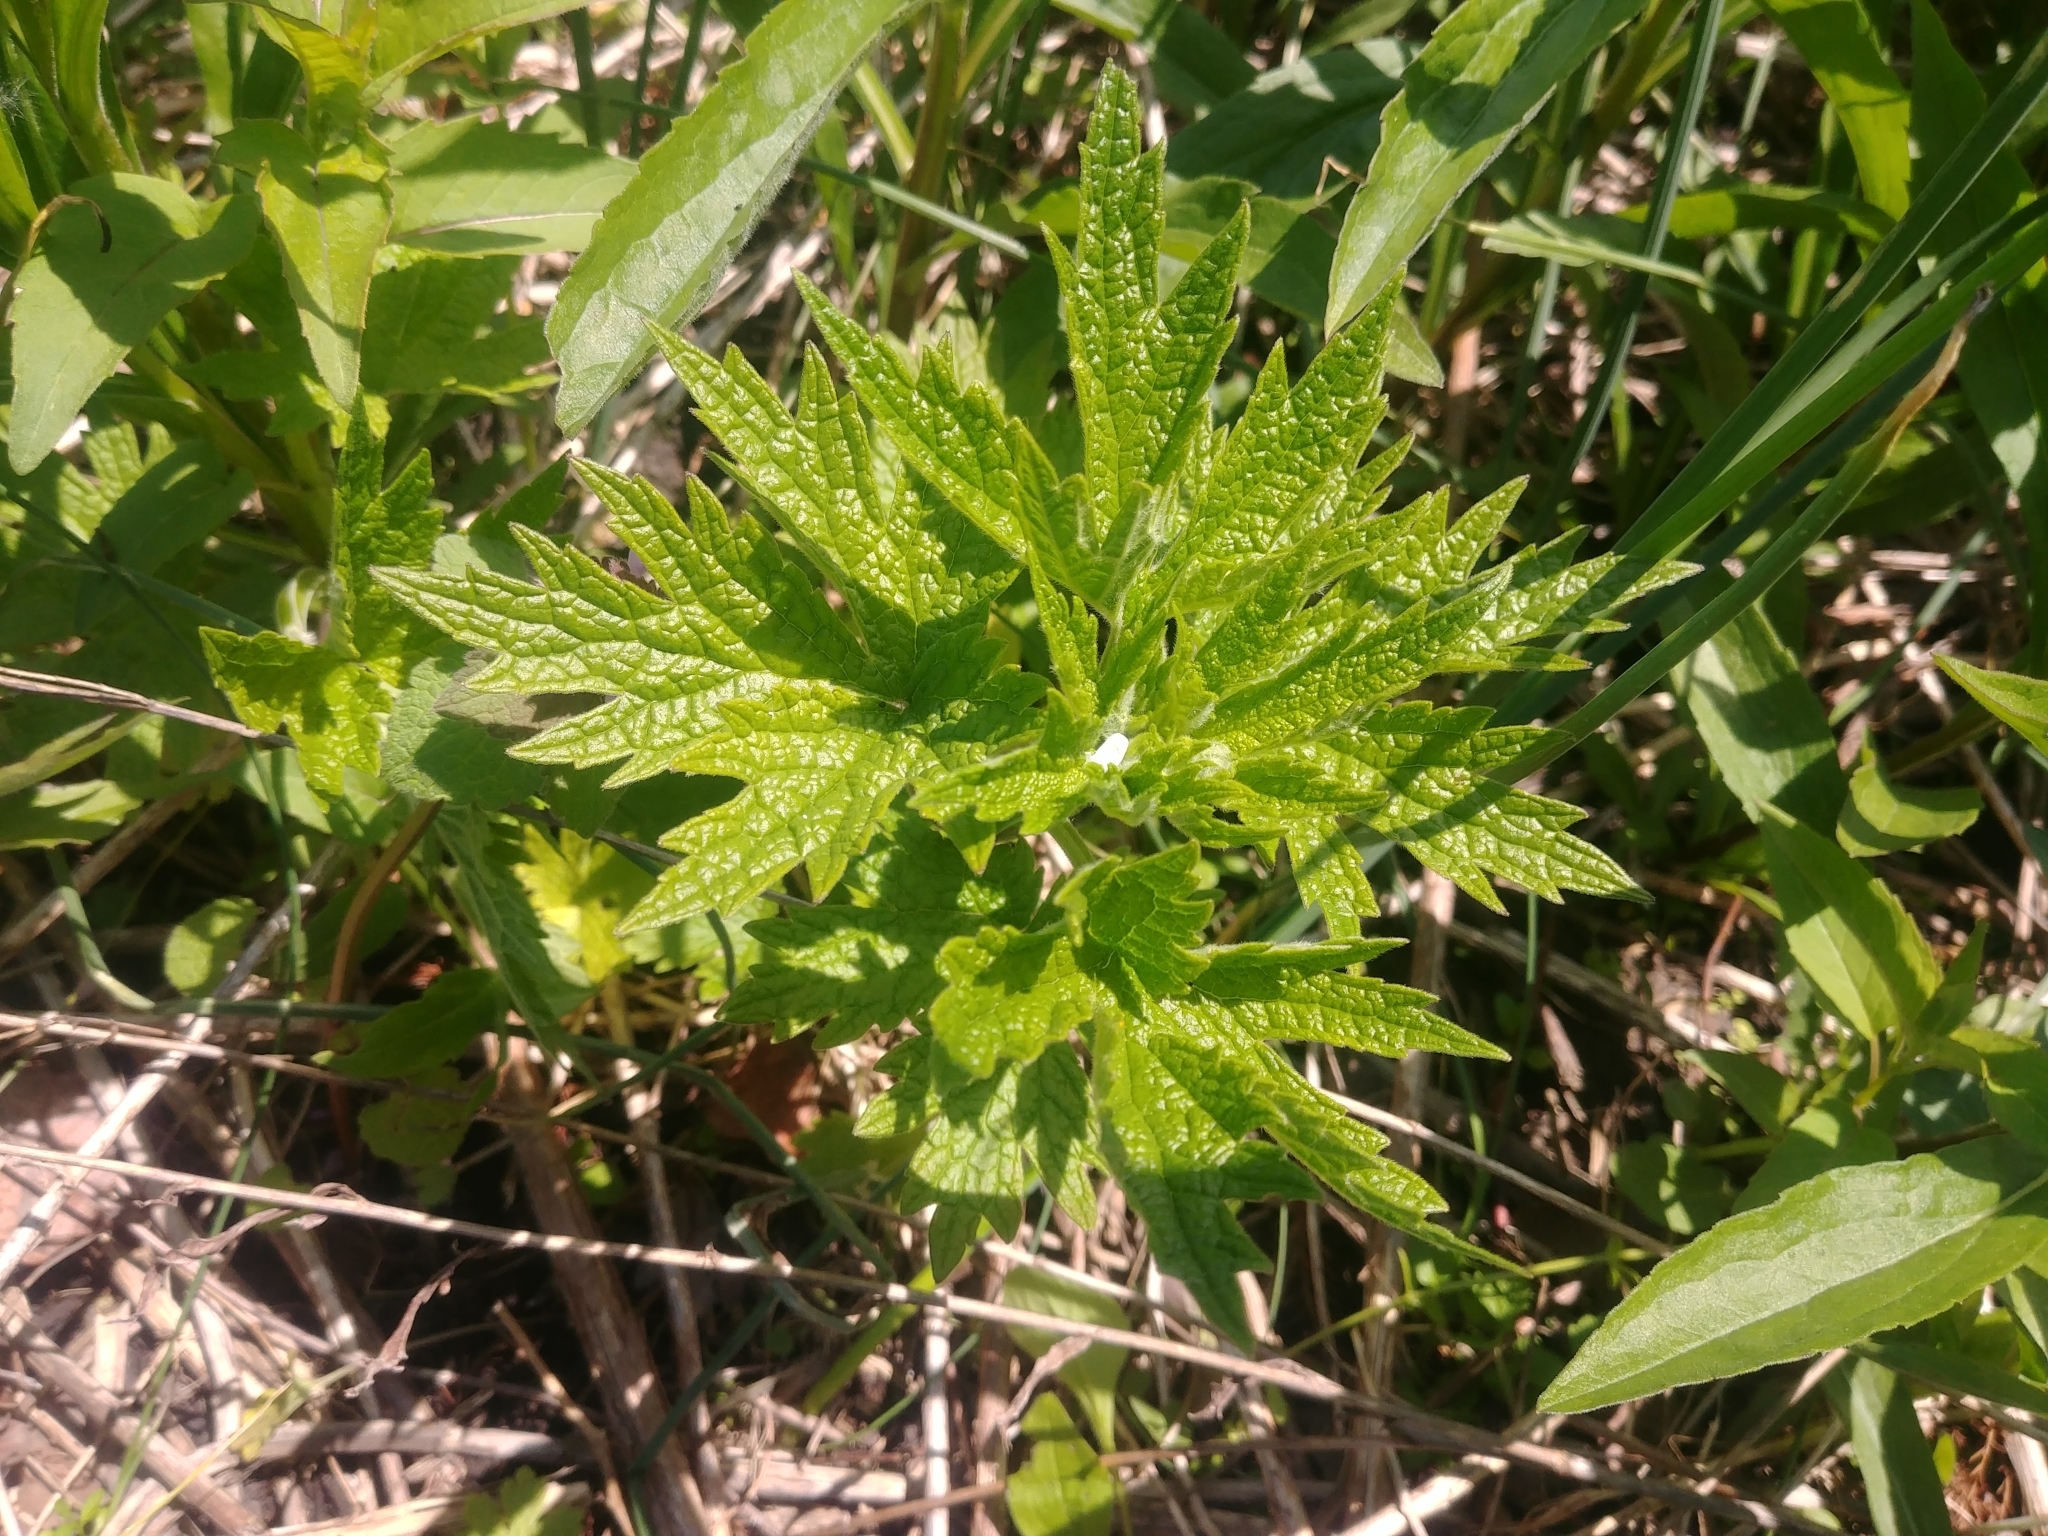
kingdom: Plantae
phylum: Tracheophyta
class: Magnoliopsida
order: Lamiales
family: Lamiaceae
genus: Leonurus
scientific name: Leonurus cardiaca
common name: Motherwort
